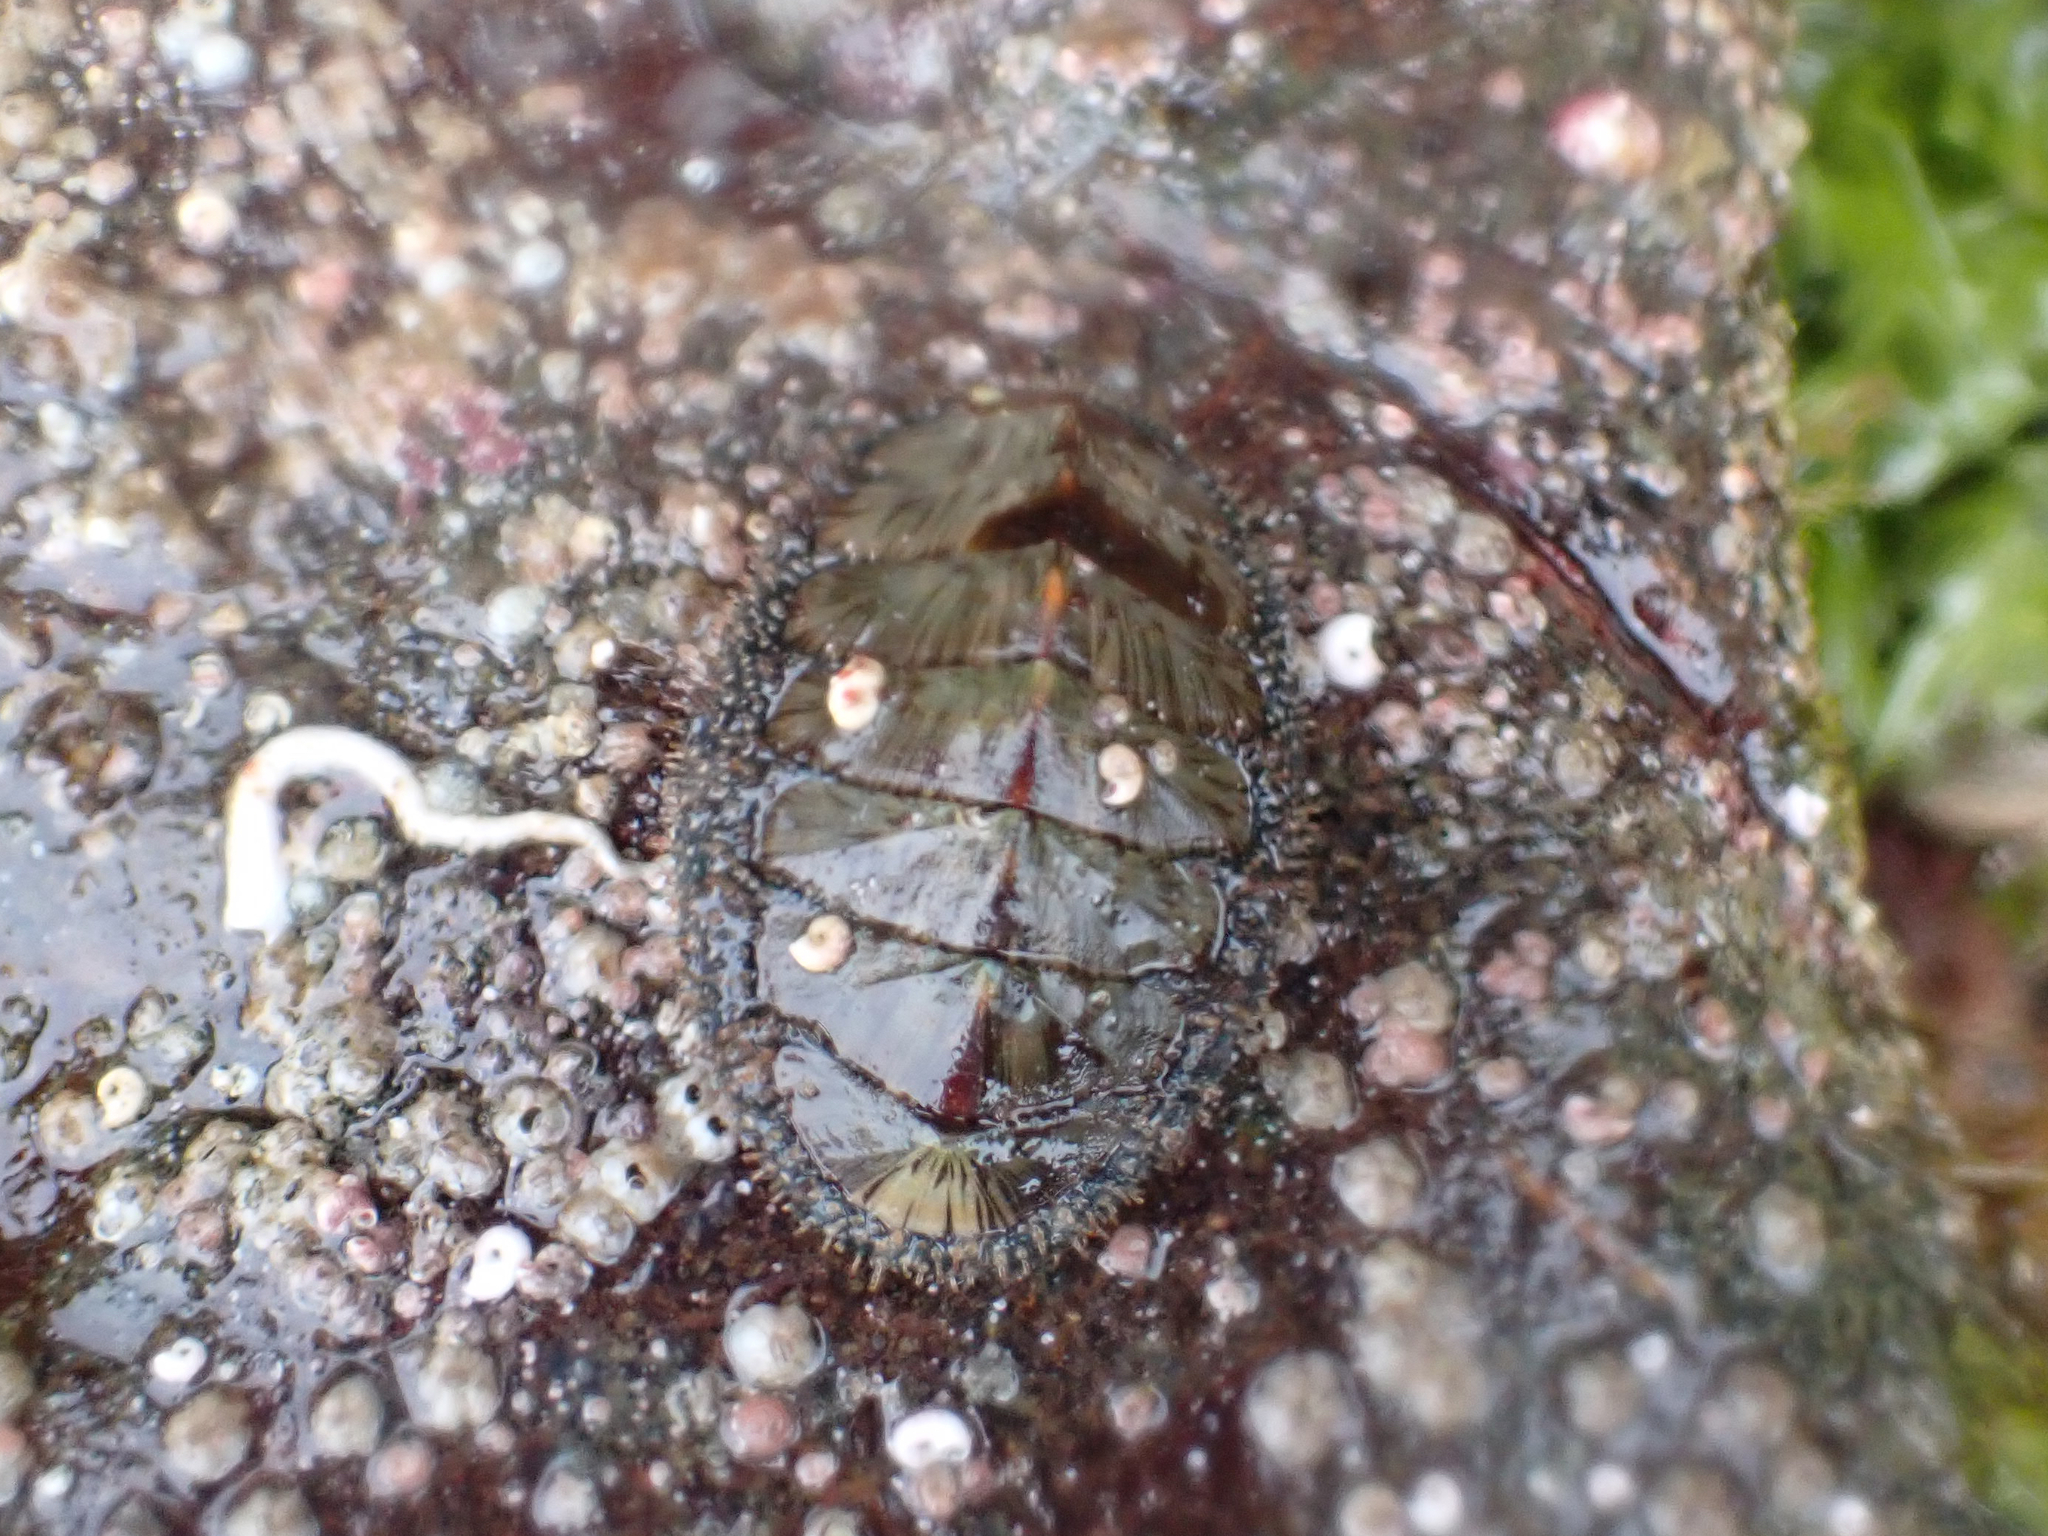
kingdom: Animalia
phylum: Mollusca
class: Polyplacophora
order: Chitonida
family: Mopaliidae
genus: Mopalia
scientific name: Mopalia lignosa
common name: Woody chiton
